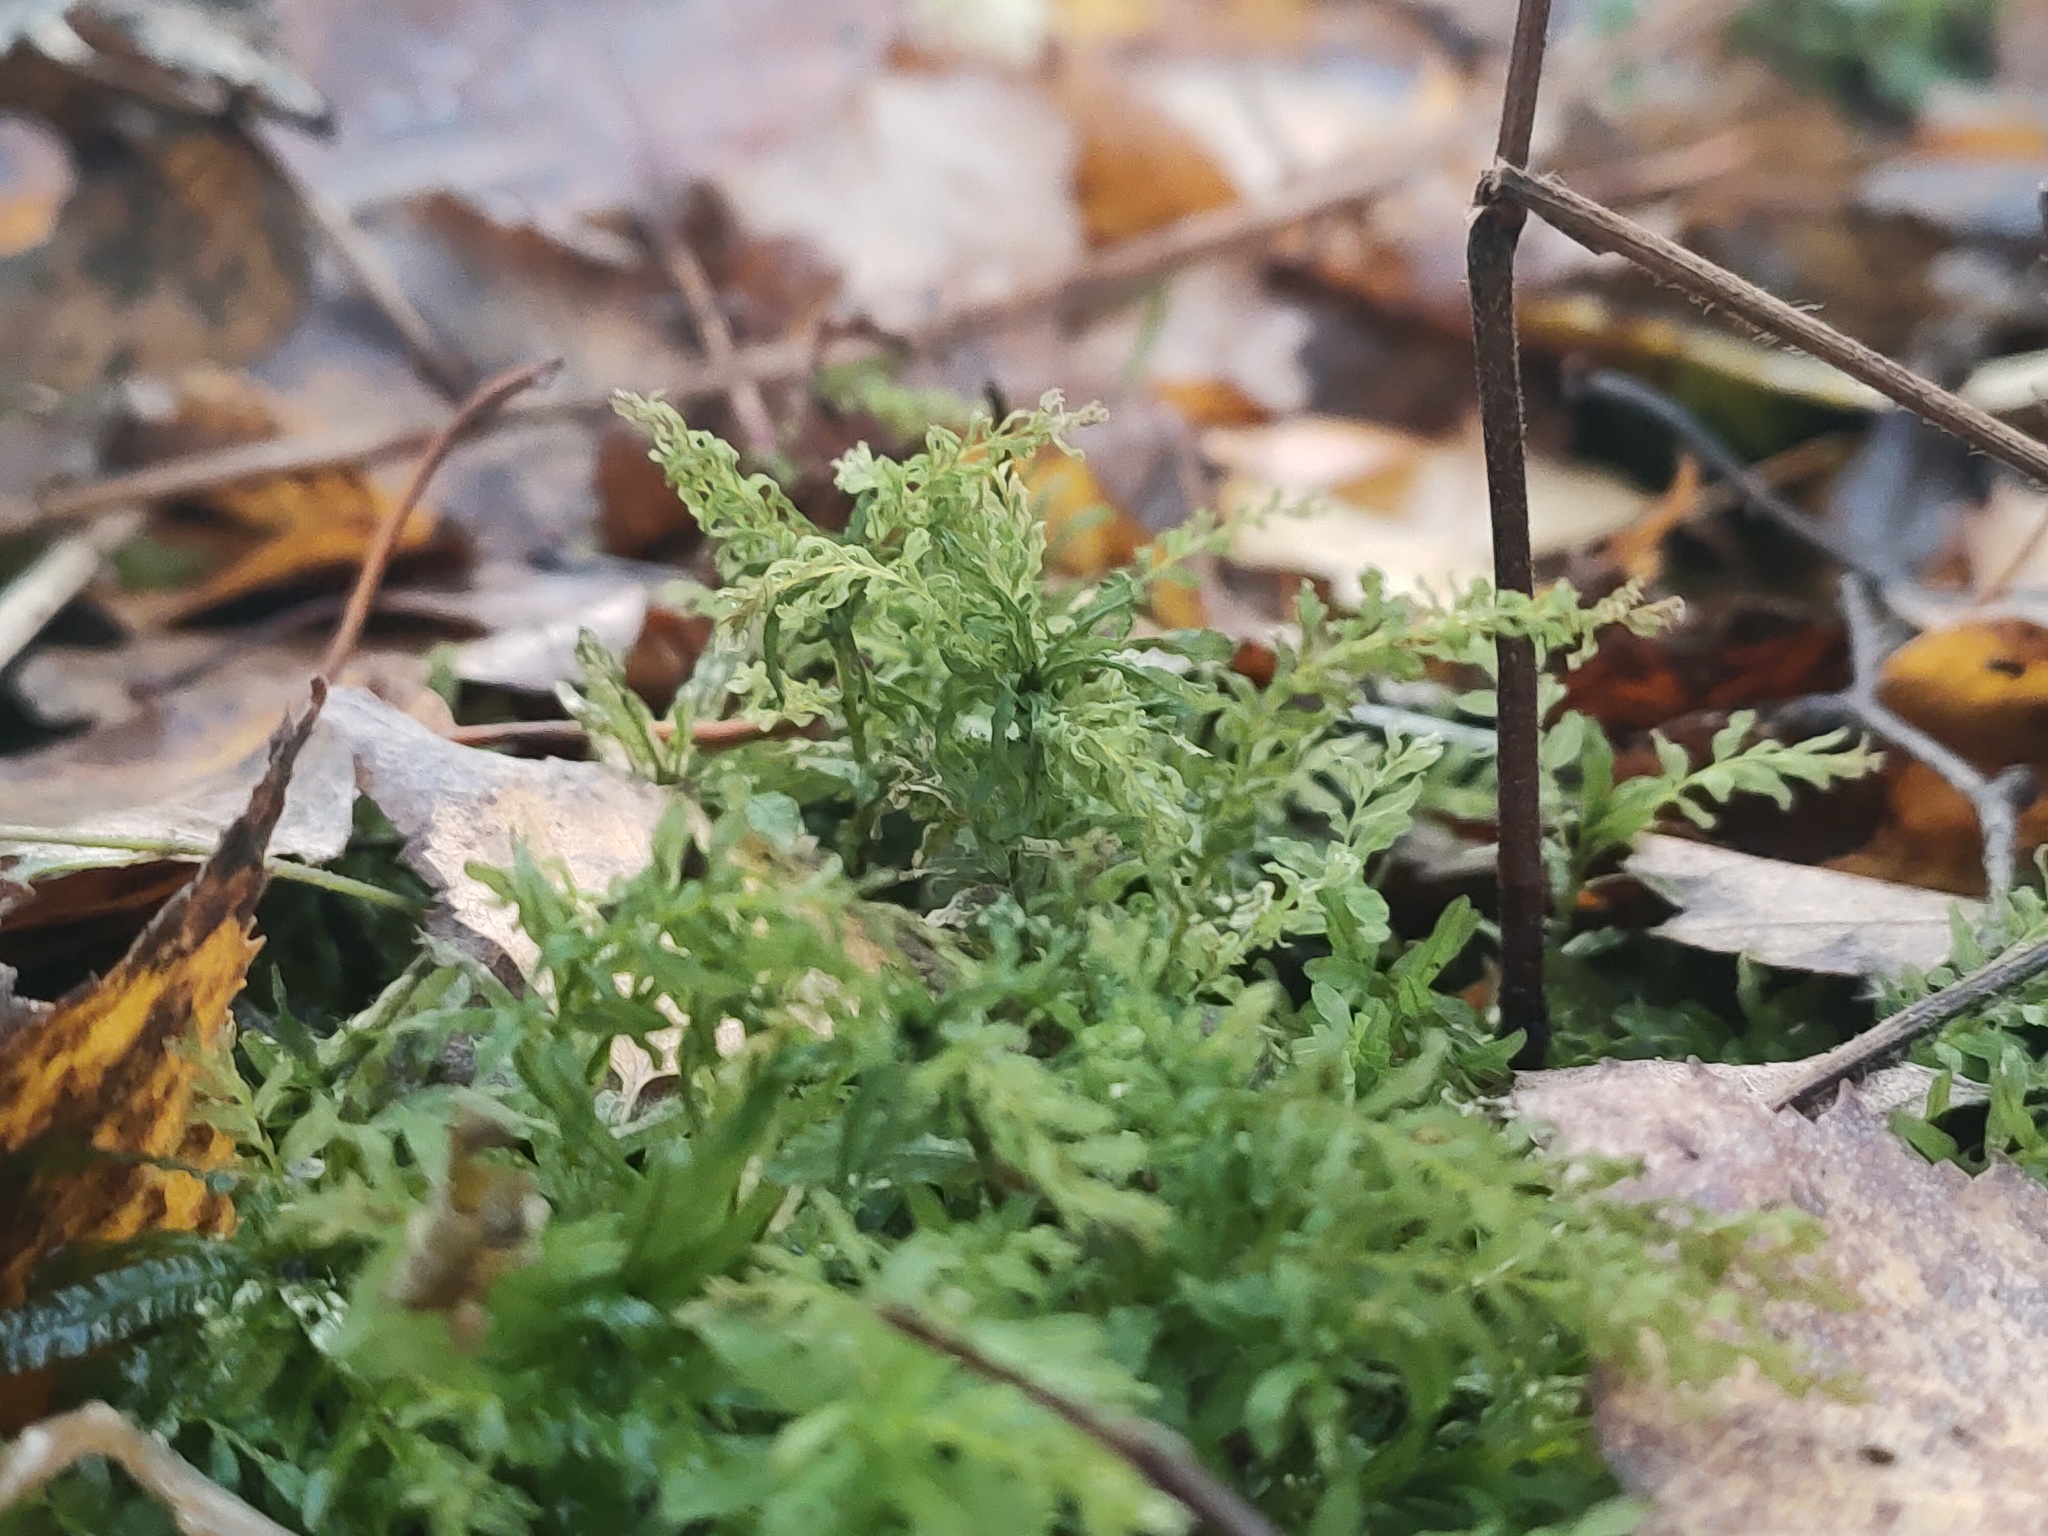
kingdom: Plantae
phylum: Bryophyta
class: Bryopsida
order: Bryales
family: Mniaceae
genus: Plagiomnium
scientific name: Plagiomnium undulatum
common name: Hart's-tongue thyme-moss
